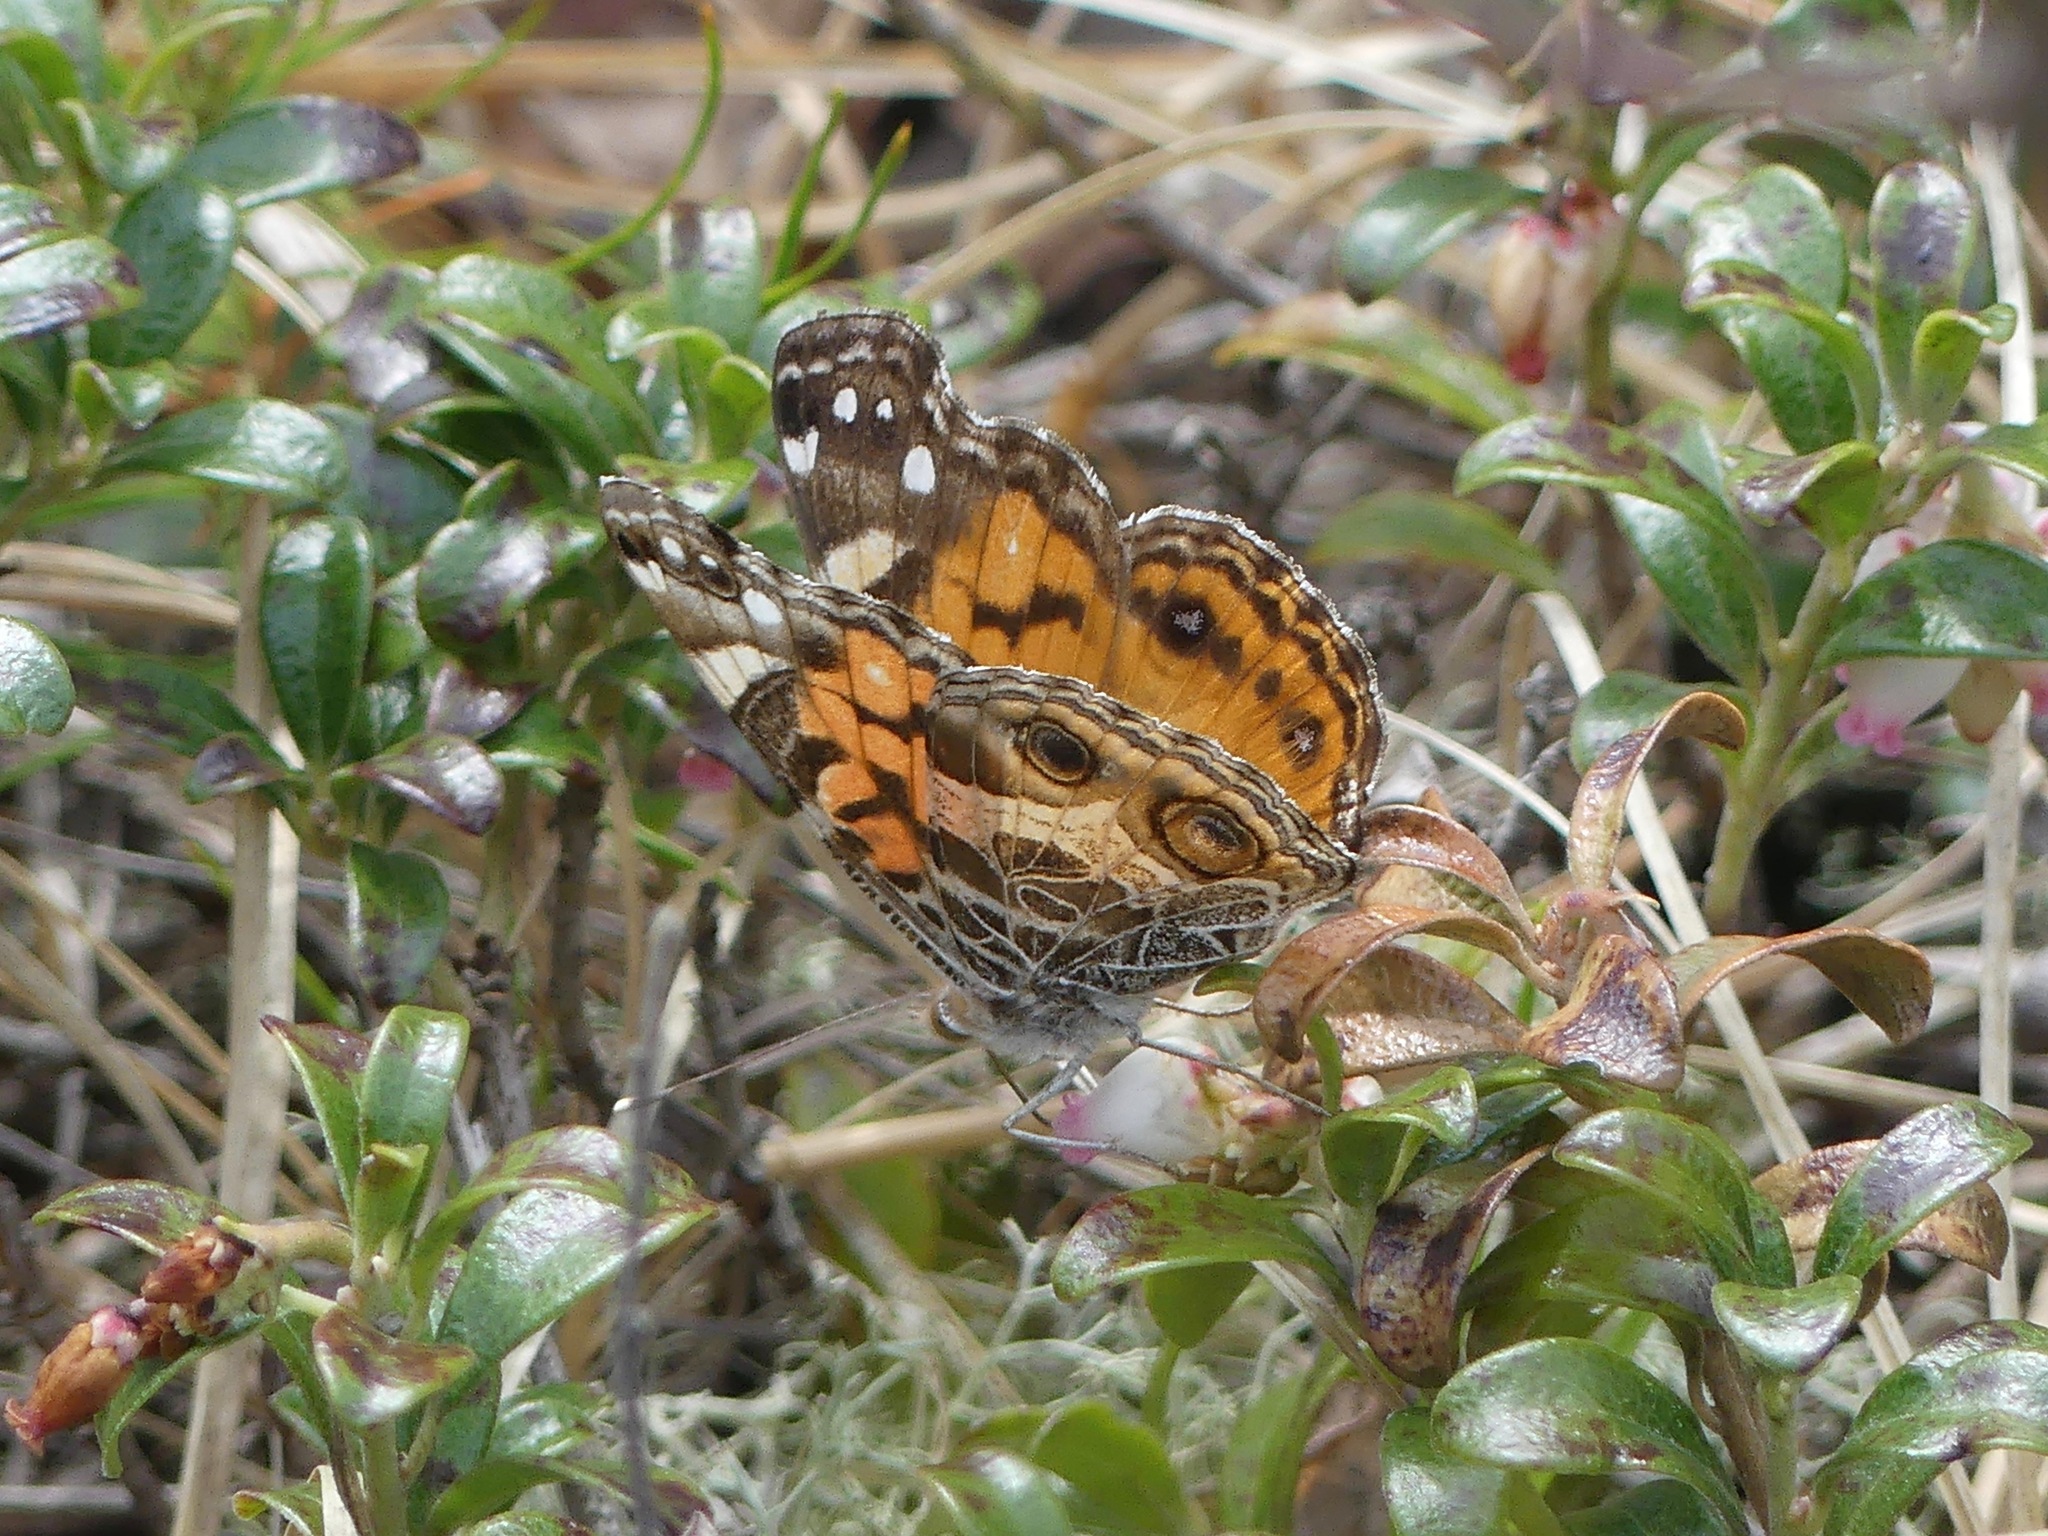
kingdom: Animalia
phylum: Arthropoda
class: Insecta
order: Lepidoptera
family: Nymphalidae
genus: Vanessa
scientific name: Vanessa virginiensis
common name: American lady
